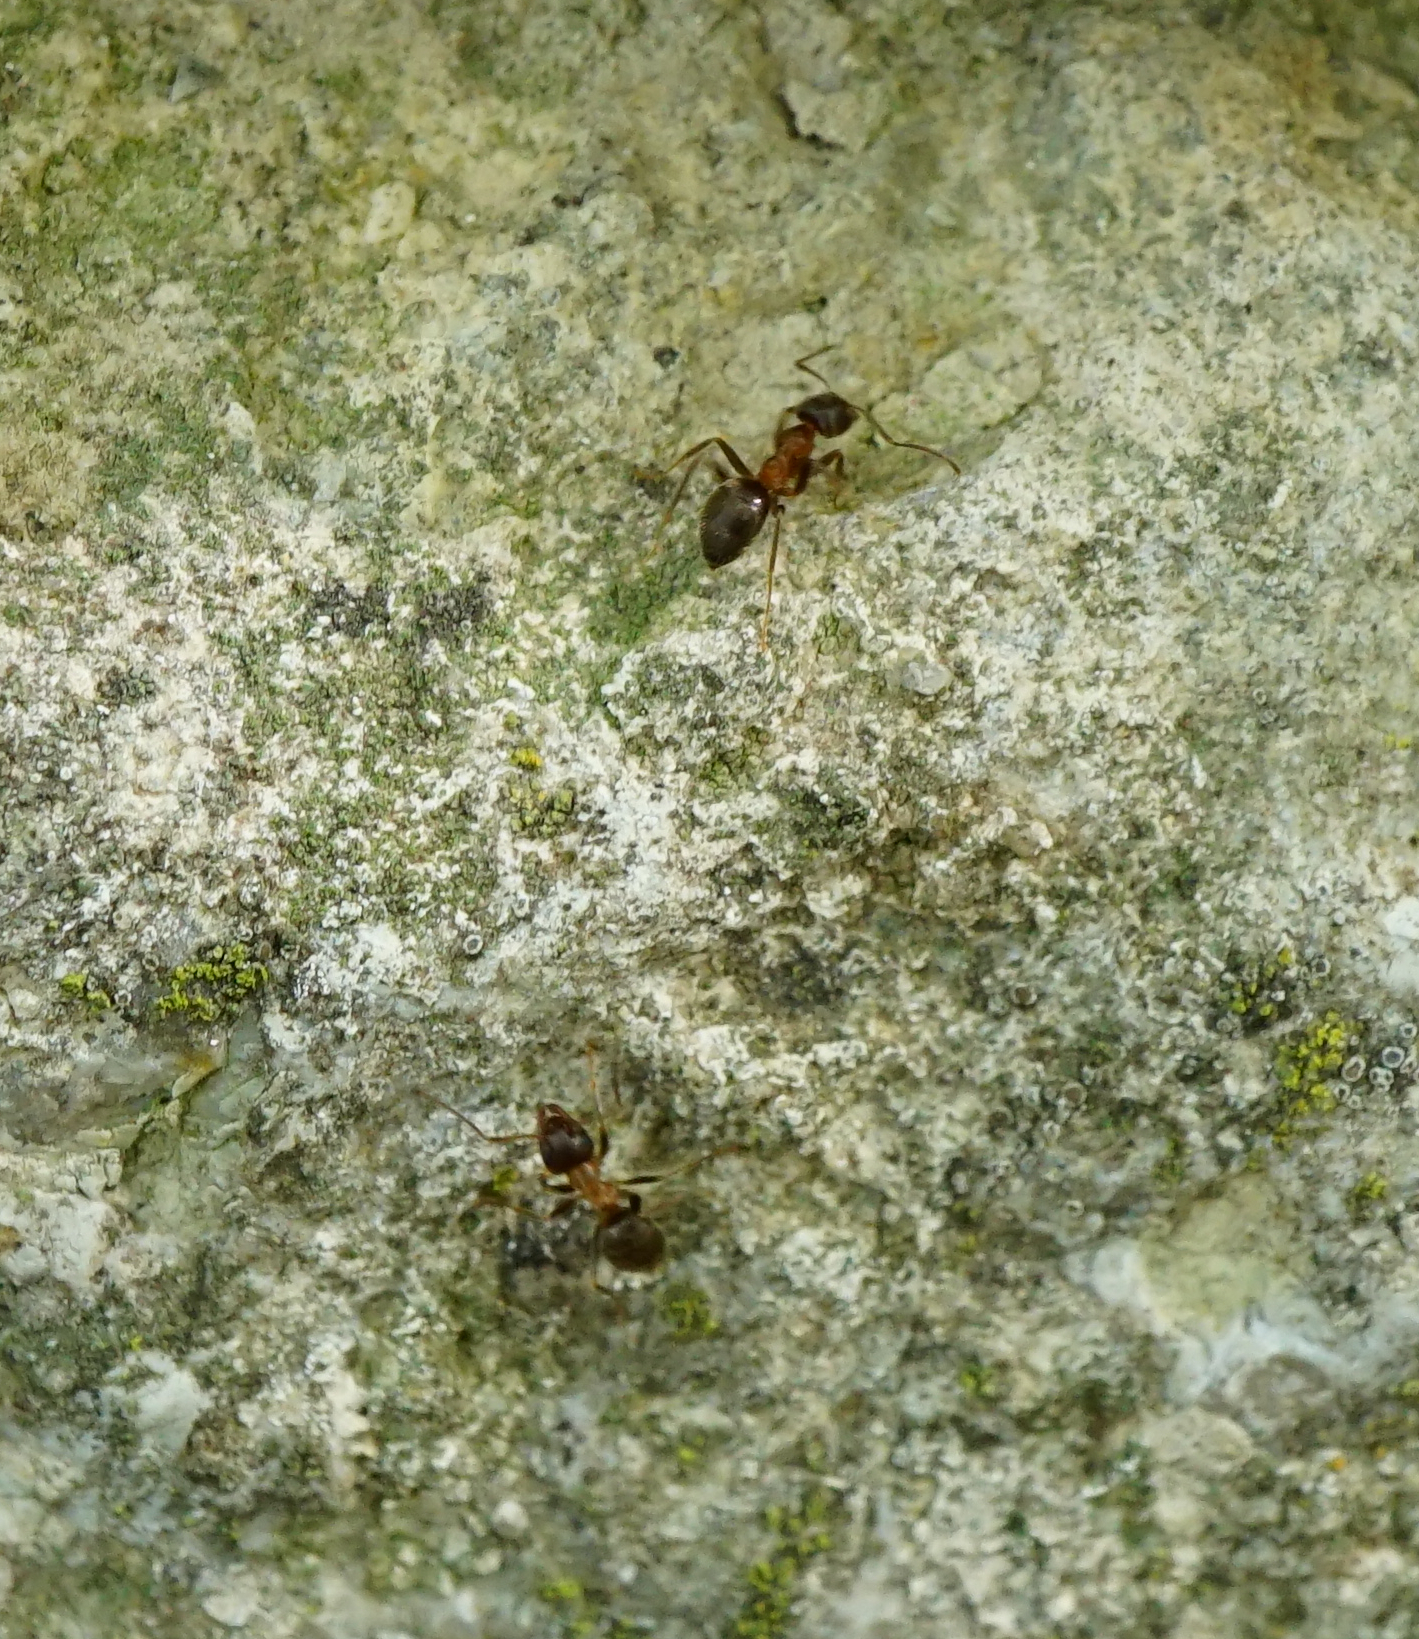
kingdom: Animalia
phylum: Arthropoda
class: Insecta
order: Hymenoptera
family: Formicidae
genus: Lasius
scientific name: Lasius emarginatus
